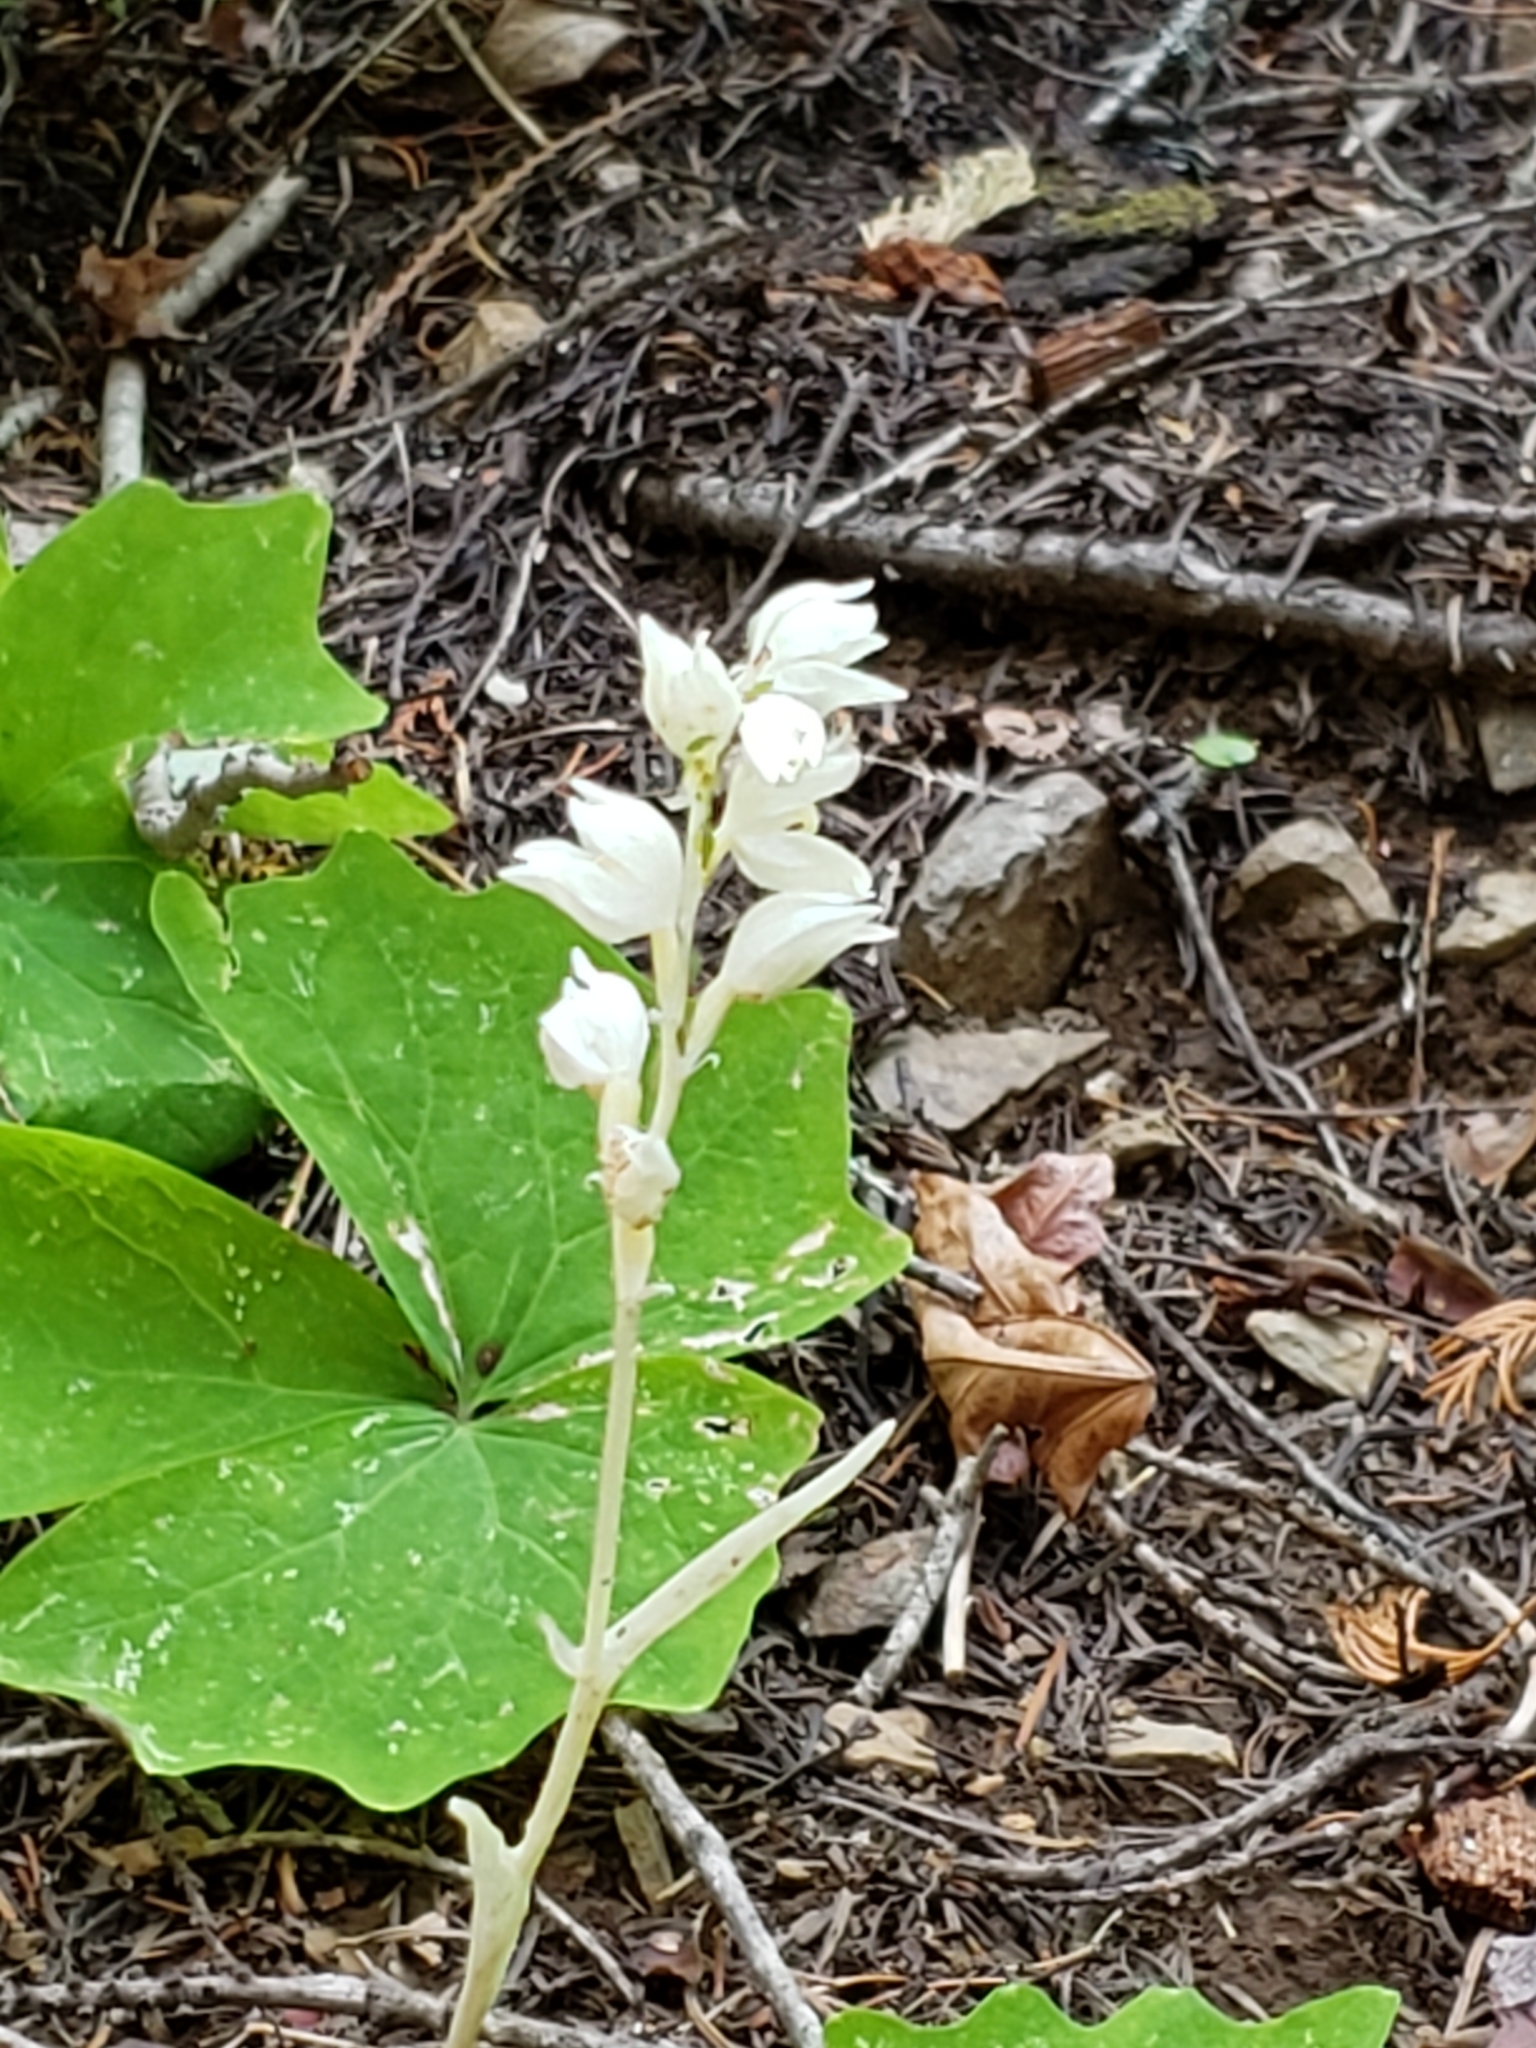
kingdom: Plantae
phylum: Tracheophyta
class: Liliopsida
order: Asparagales
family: Orchidaceae
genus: Cephalanthera
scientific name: Cephalanthera austiniae
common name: Phantom orchid
